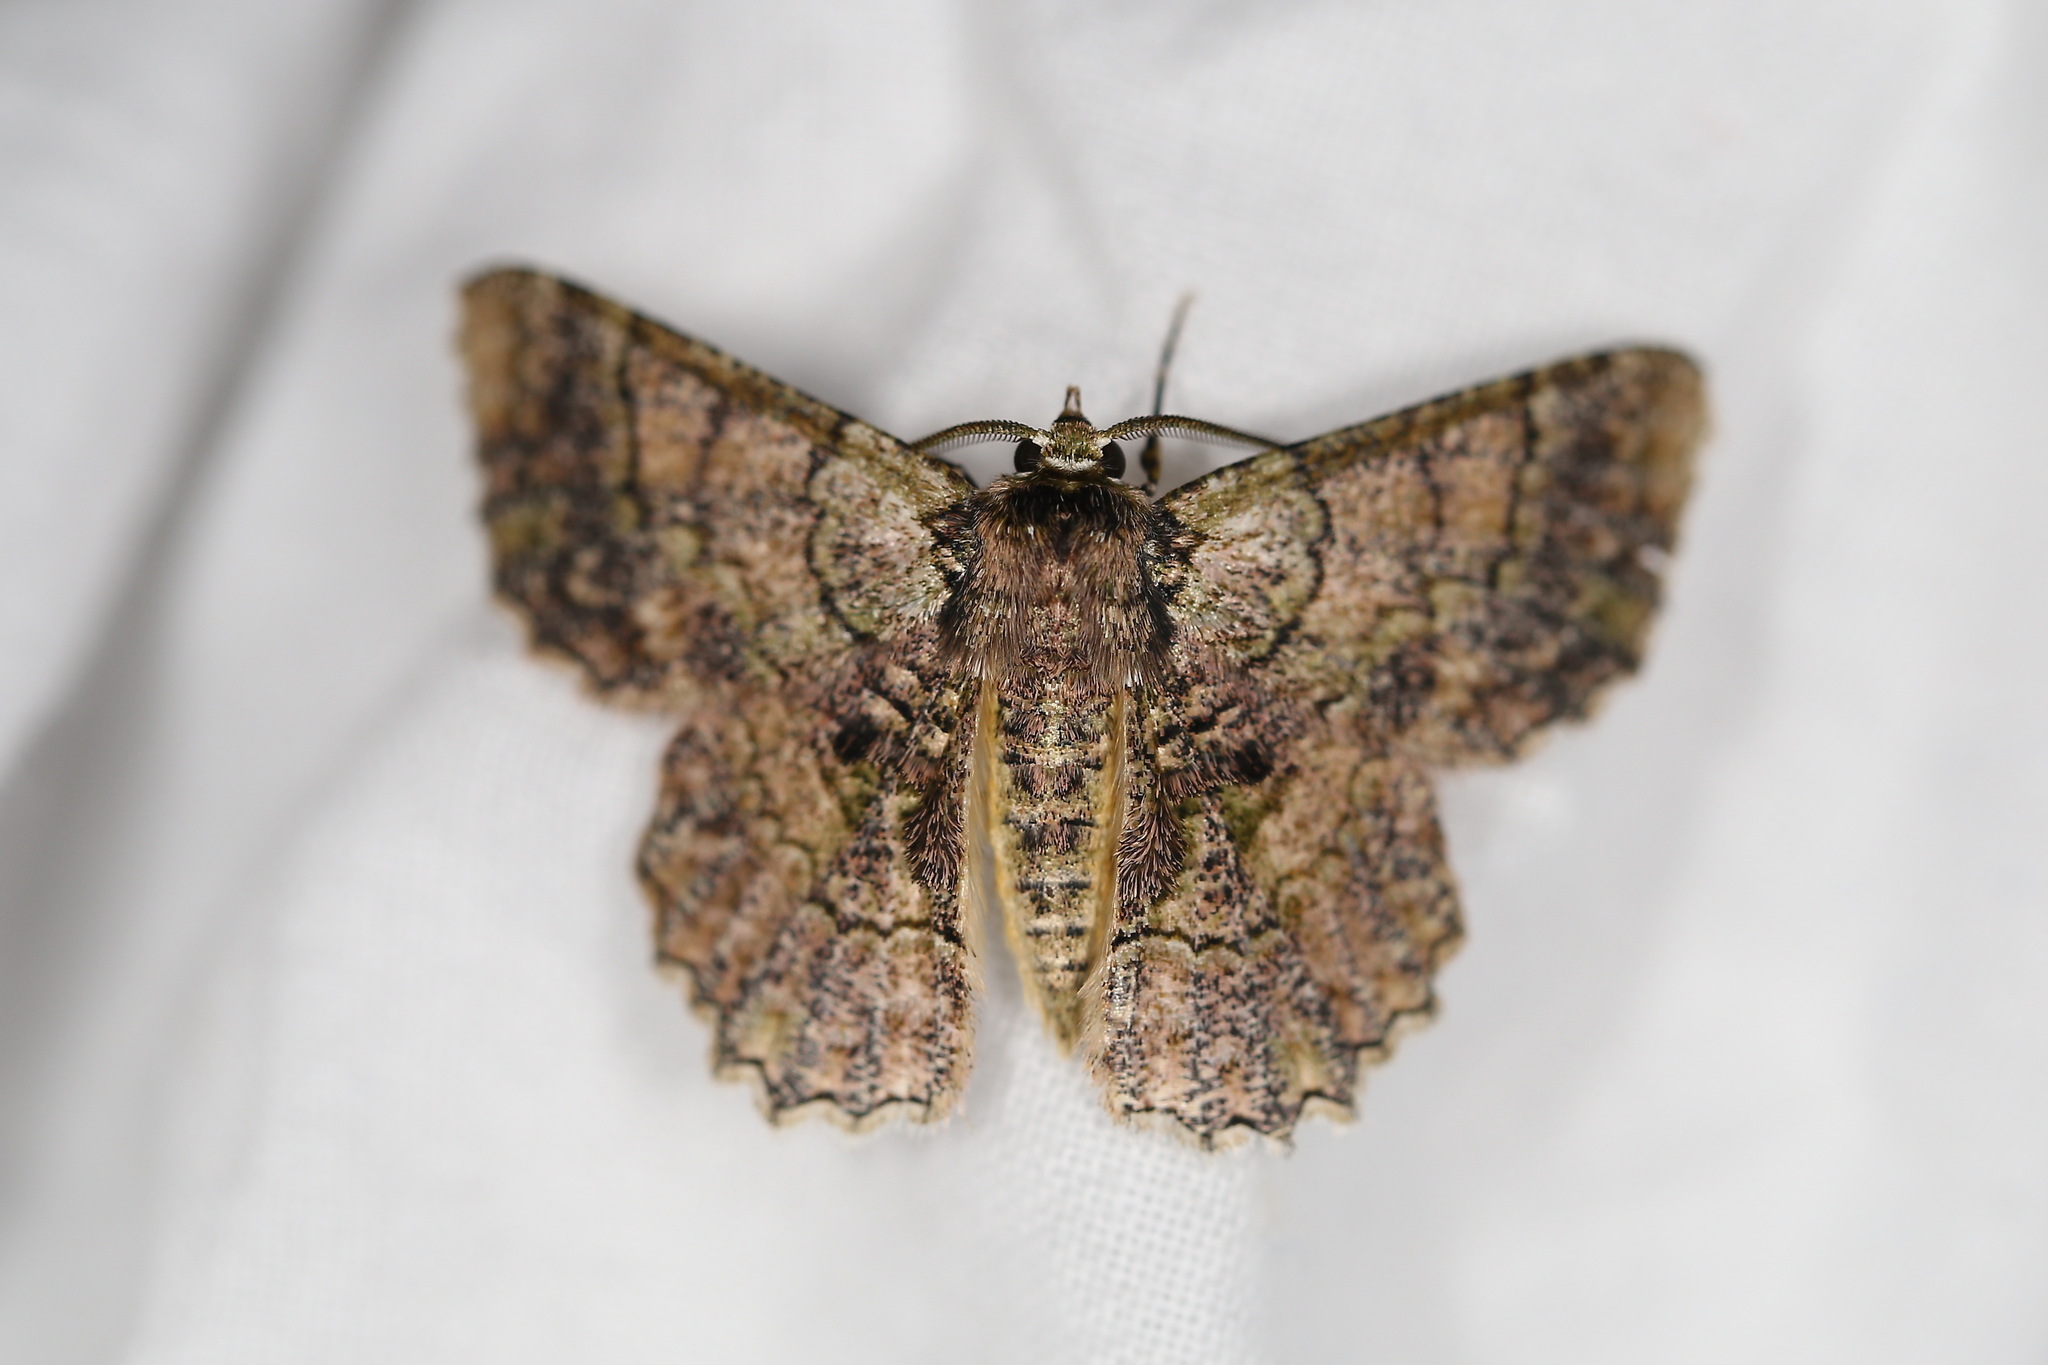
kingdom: Animalia
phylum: Arthropoda
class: Insecta
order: Lepidoptera
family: Geometridae
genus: Hypodoxa
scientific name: Hypodoxa emiliaria
